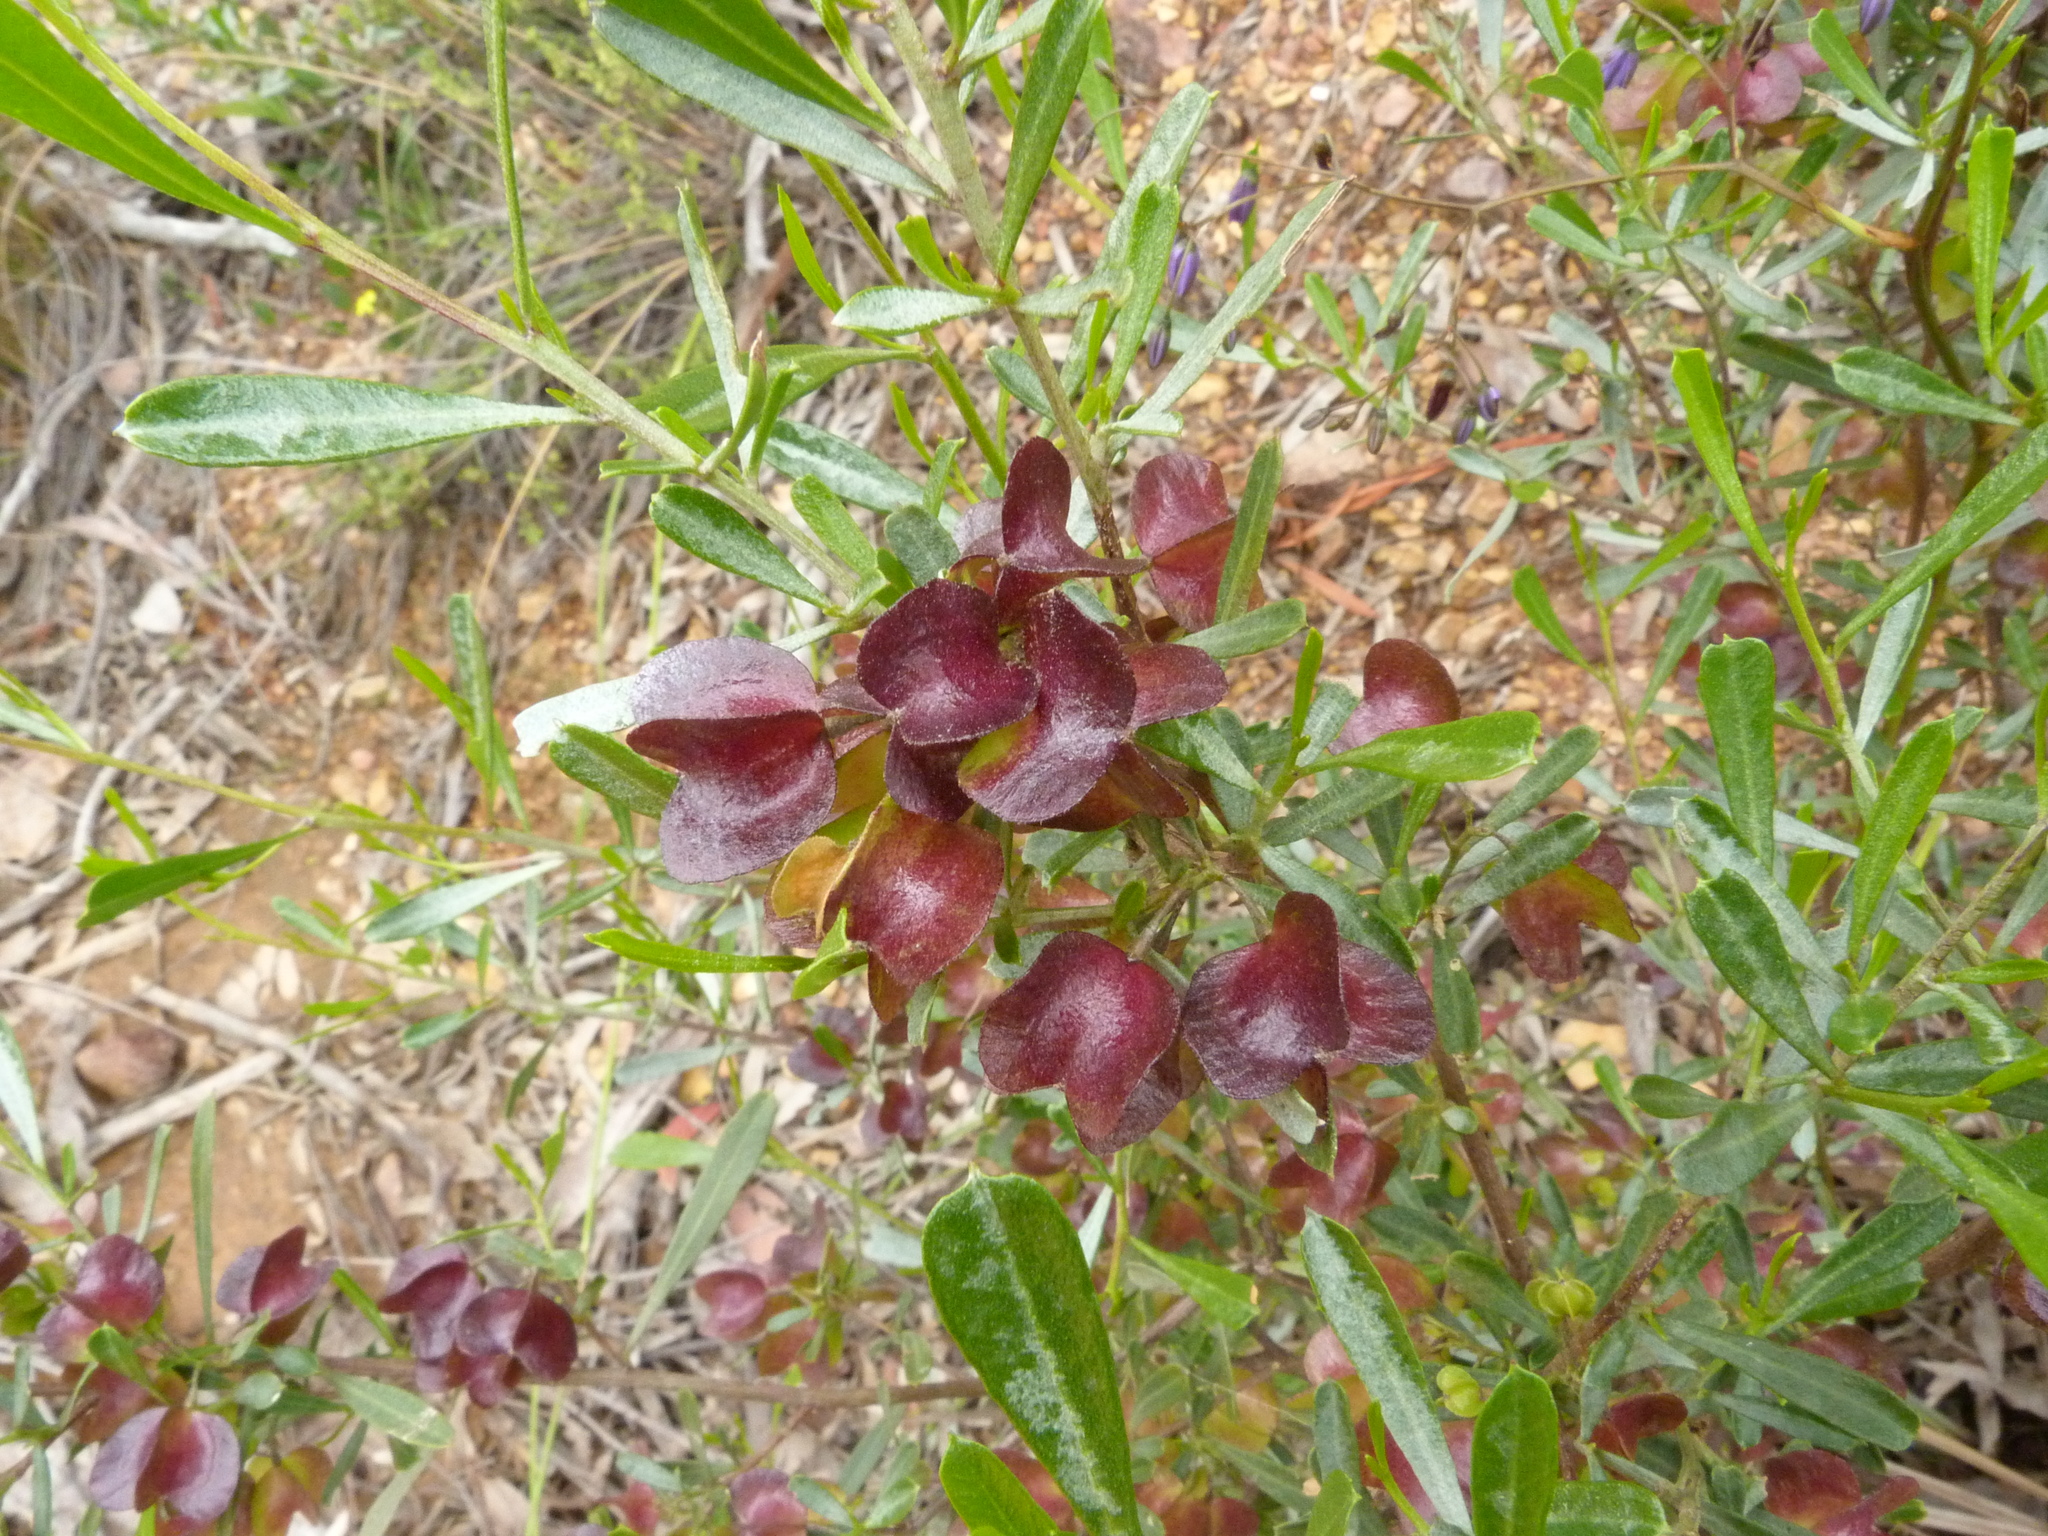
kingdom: Plantae
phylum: Tracheophyta
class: Magnoliopsida
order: Sapindales
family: Sapindaceae
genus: Dodonaea
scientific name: Dodonaea viscosa
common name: Hopbush
